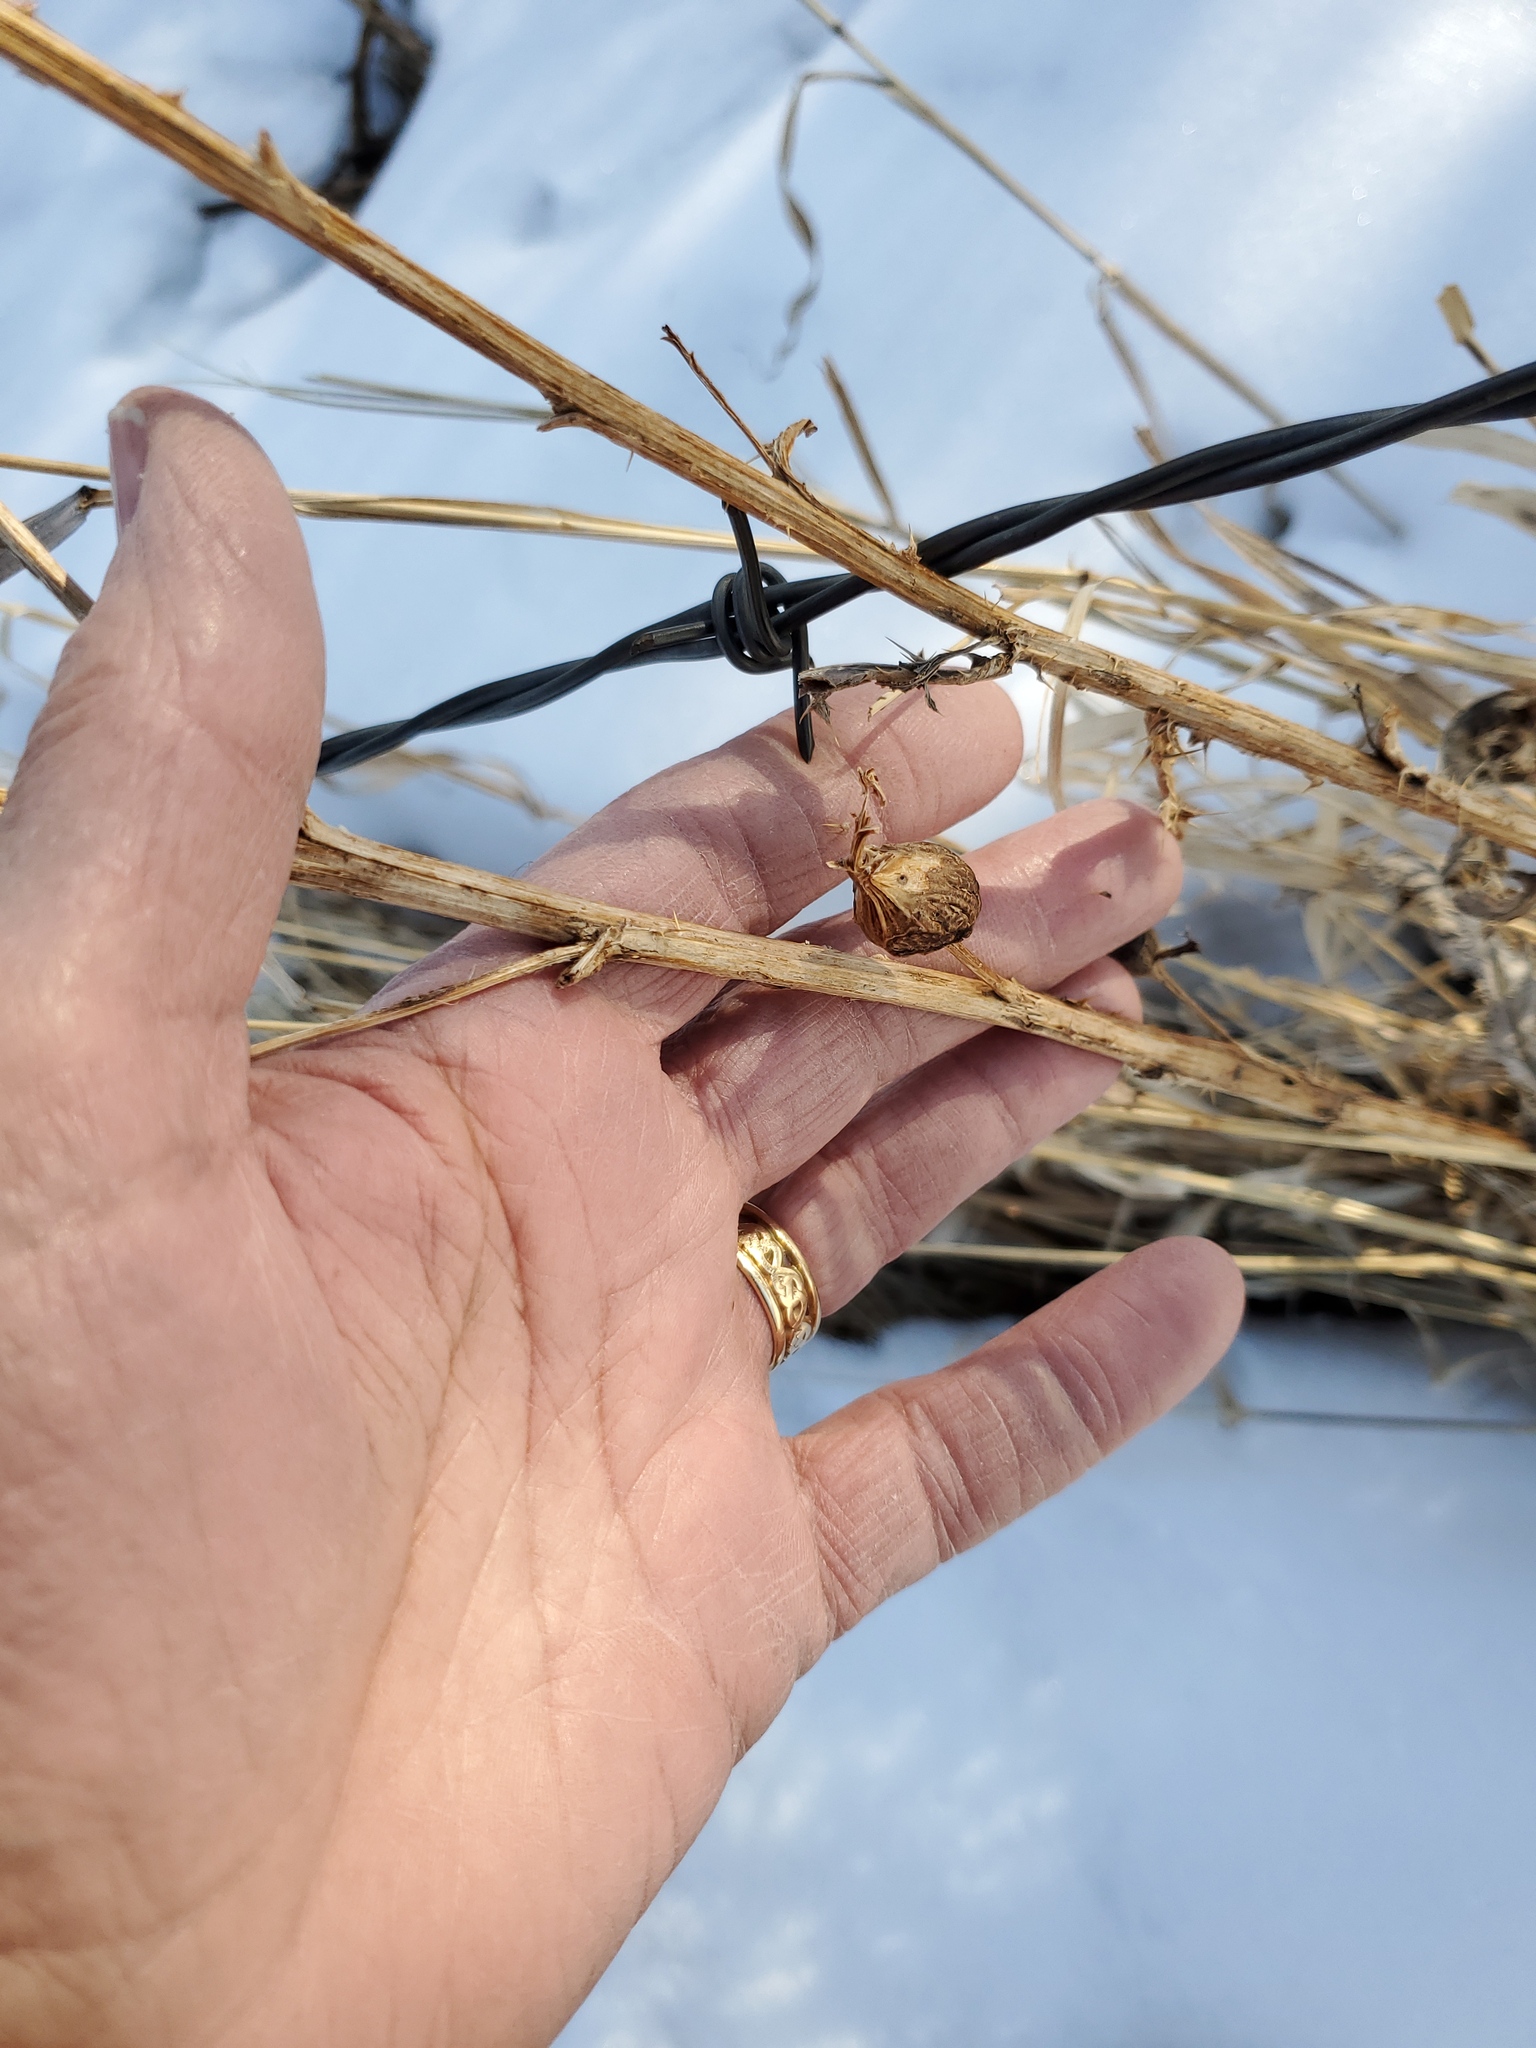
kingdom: Animalia
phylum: Arthropoda
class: Insecta
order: Diptera
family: Tephritidae
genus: Urophora
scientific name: Urophora cardui
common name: Fruit fly
